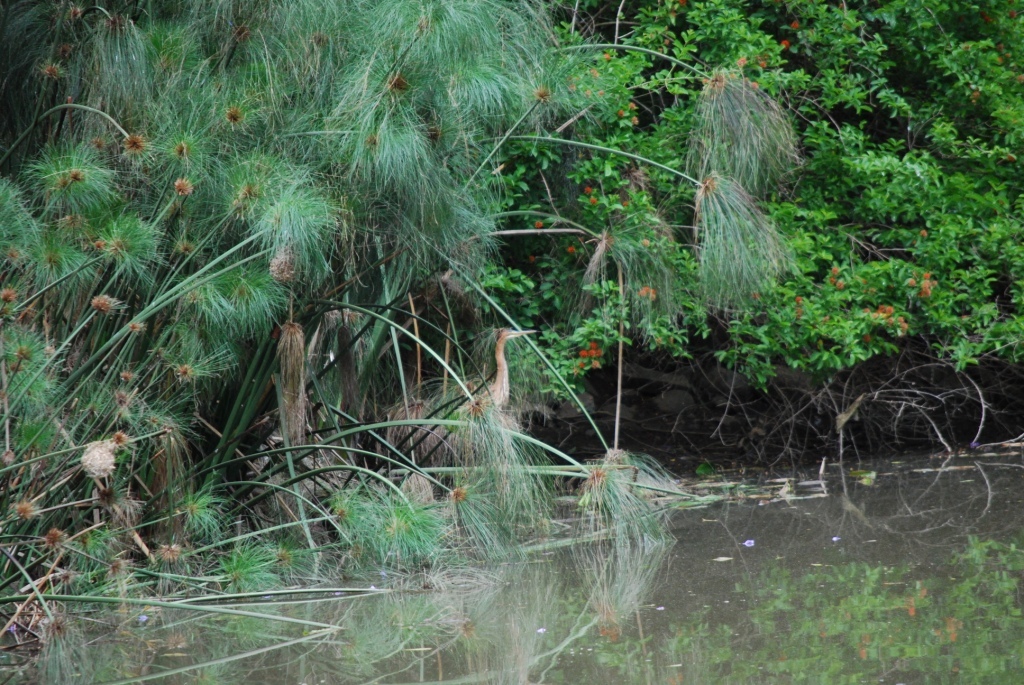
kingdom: Animalia
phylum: Chordata
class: Aves
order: Pelecaniformes
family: Ardeidae
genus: Ardea
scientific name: Ardea purpurea
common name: Purple heron
